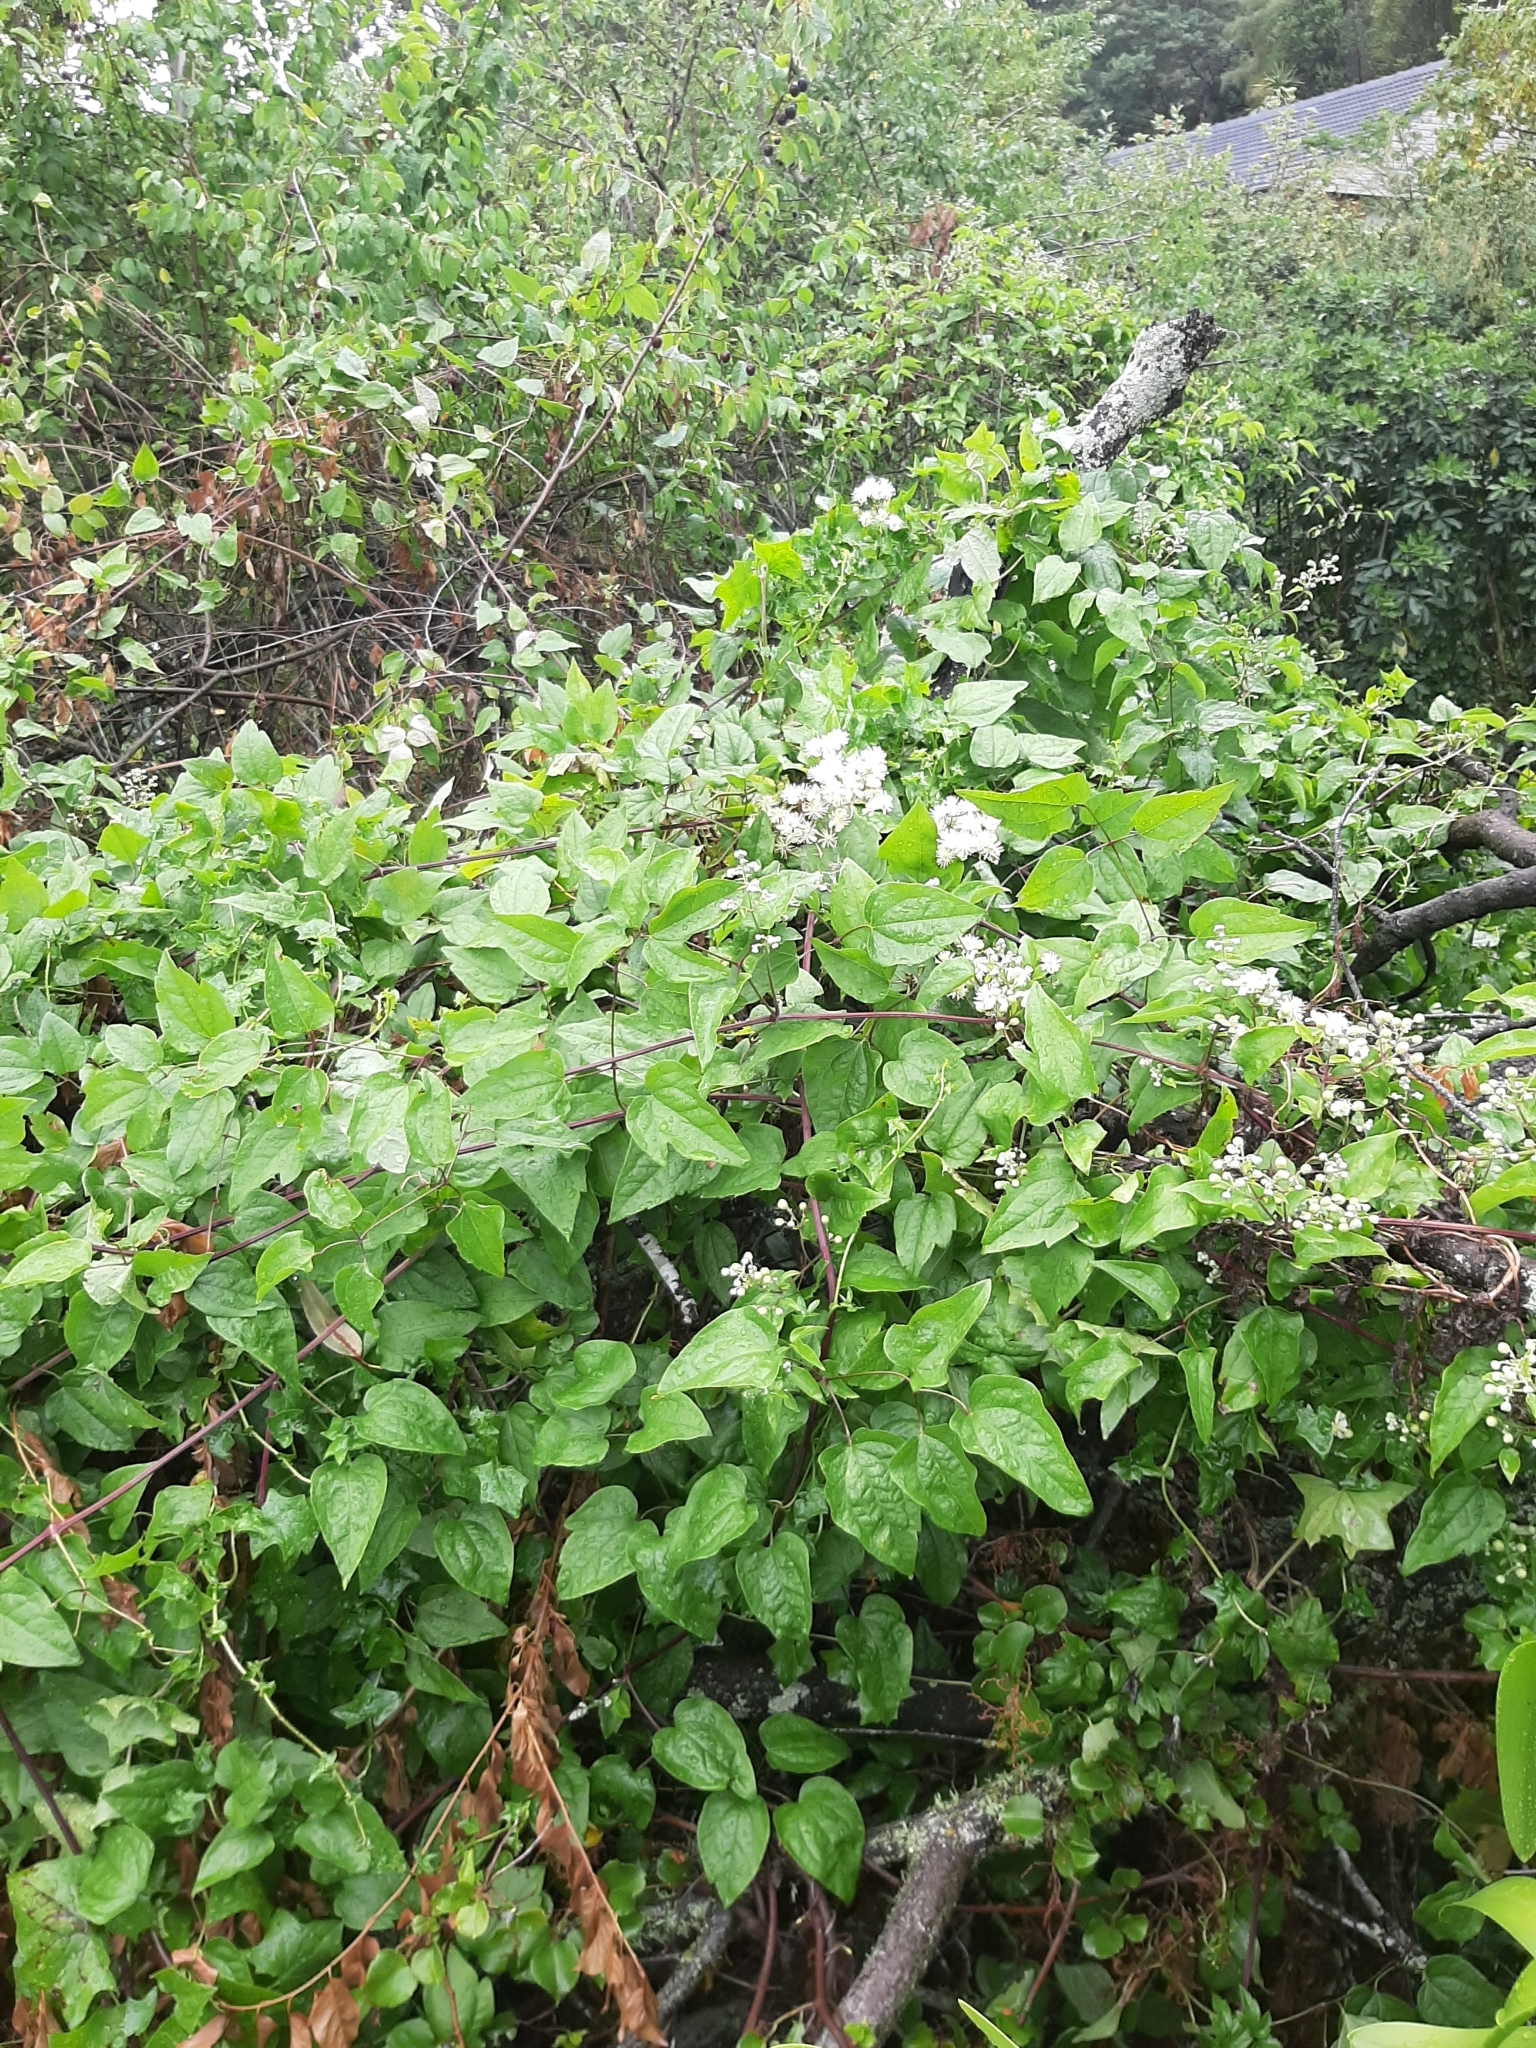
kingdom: Plantae
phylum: Tracheophyta
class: Magnoliopsida
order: Ranunculales
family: Ranunculaceae
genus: Clematis
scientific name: Clematis vitalba
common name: Evergreen clematis
